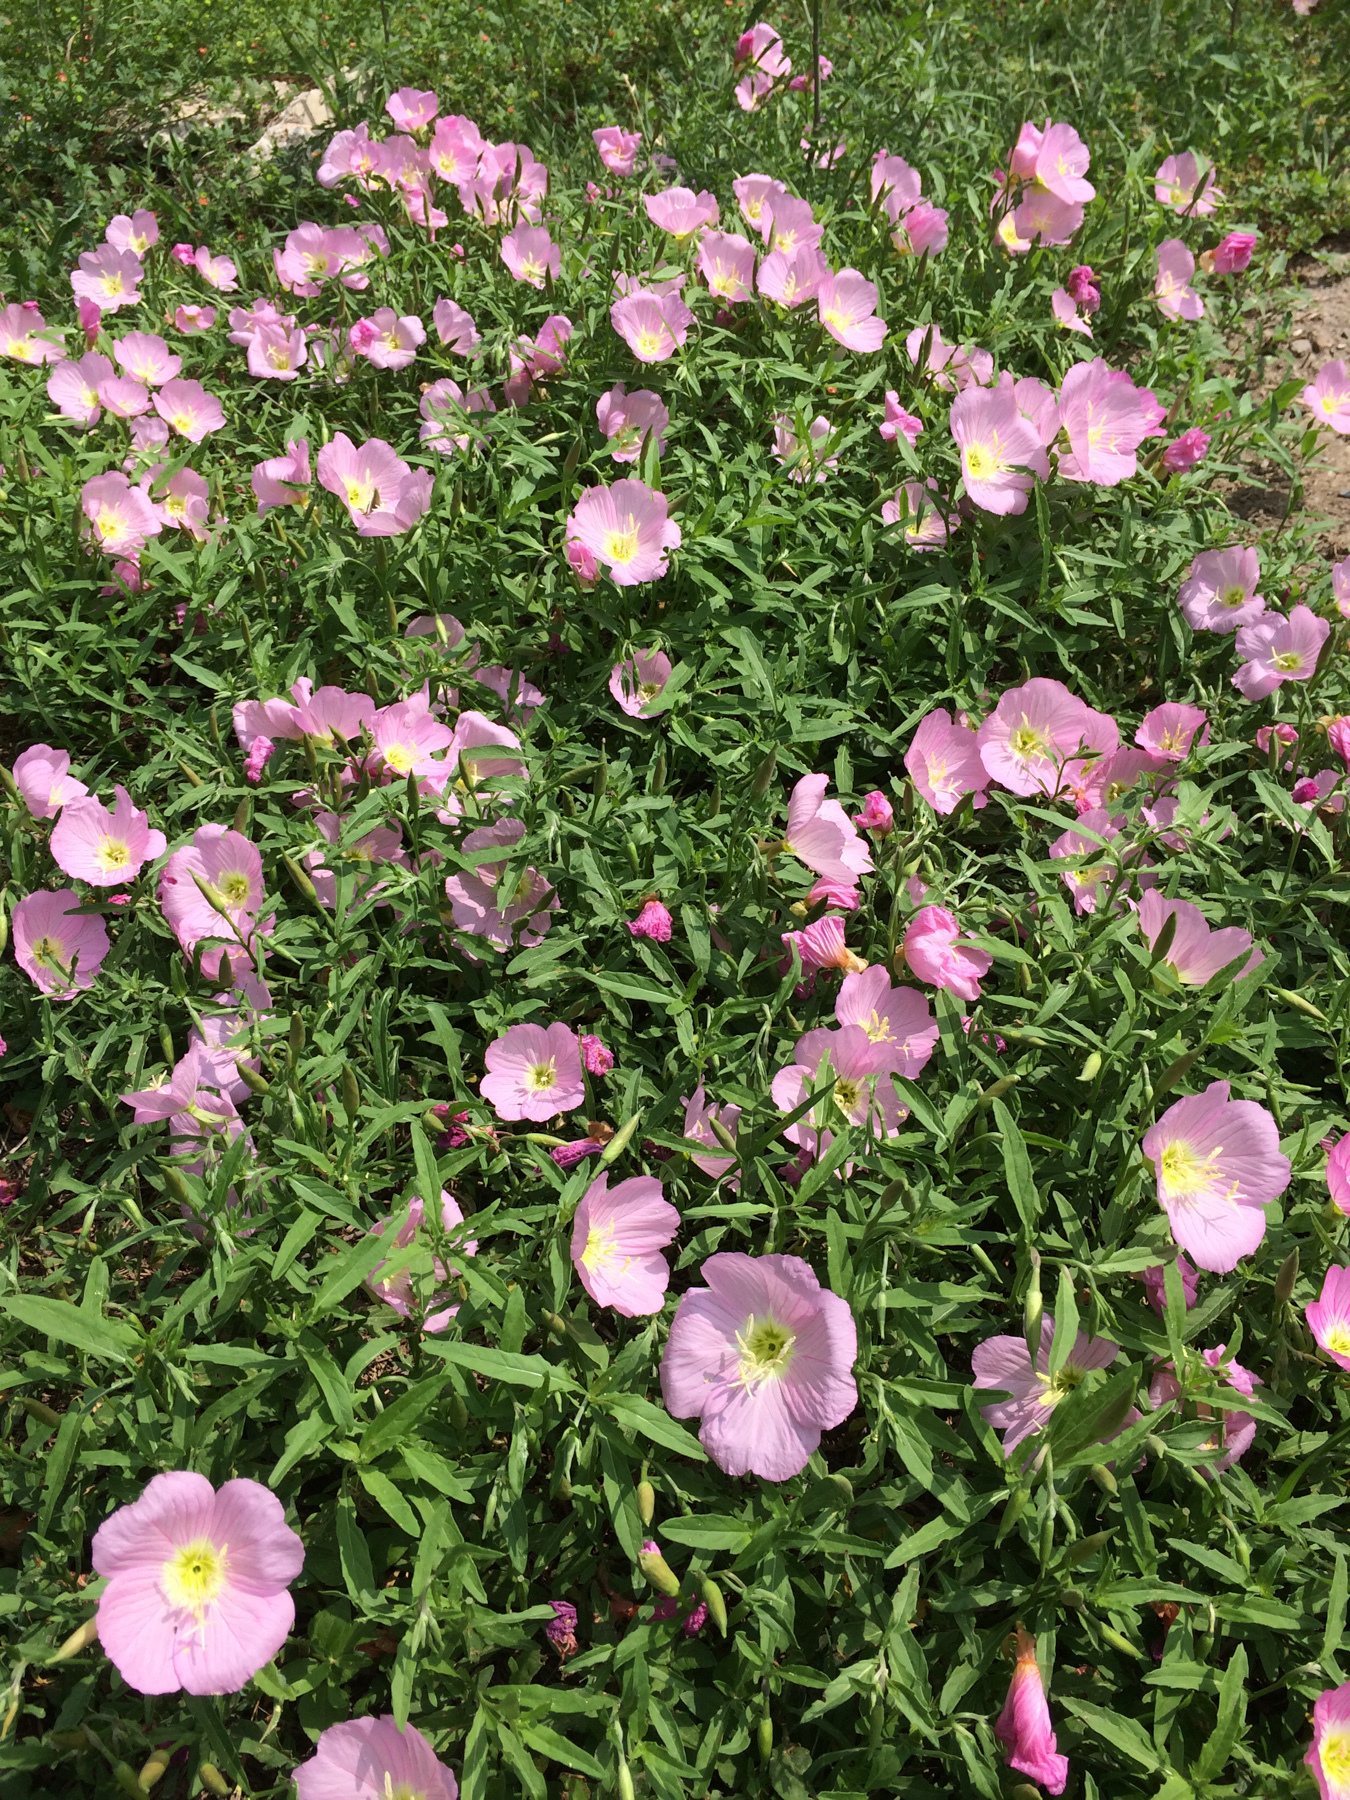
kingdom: Plantae
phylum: Tracheophyta
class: Magnoliopsida
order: Myrtales
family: Onagraceae
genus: Oenothera
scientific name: Oenothera speciosa
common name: White evening-primrose
